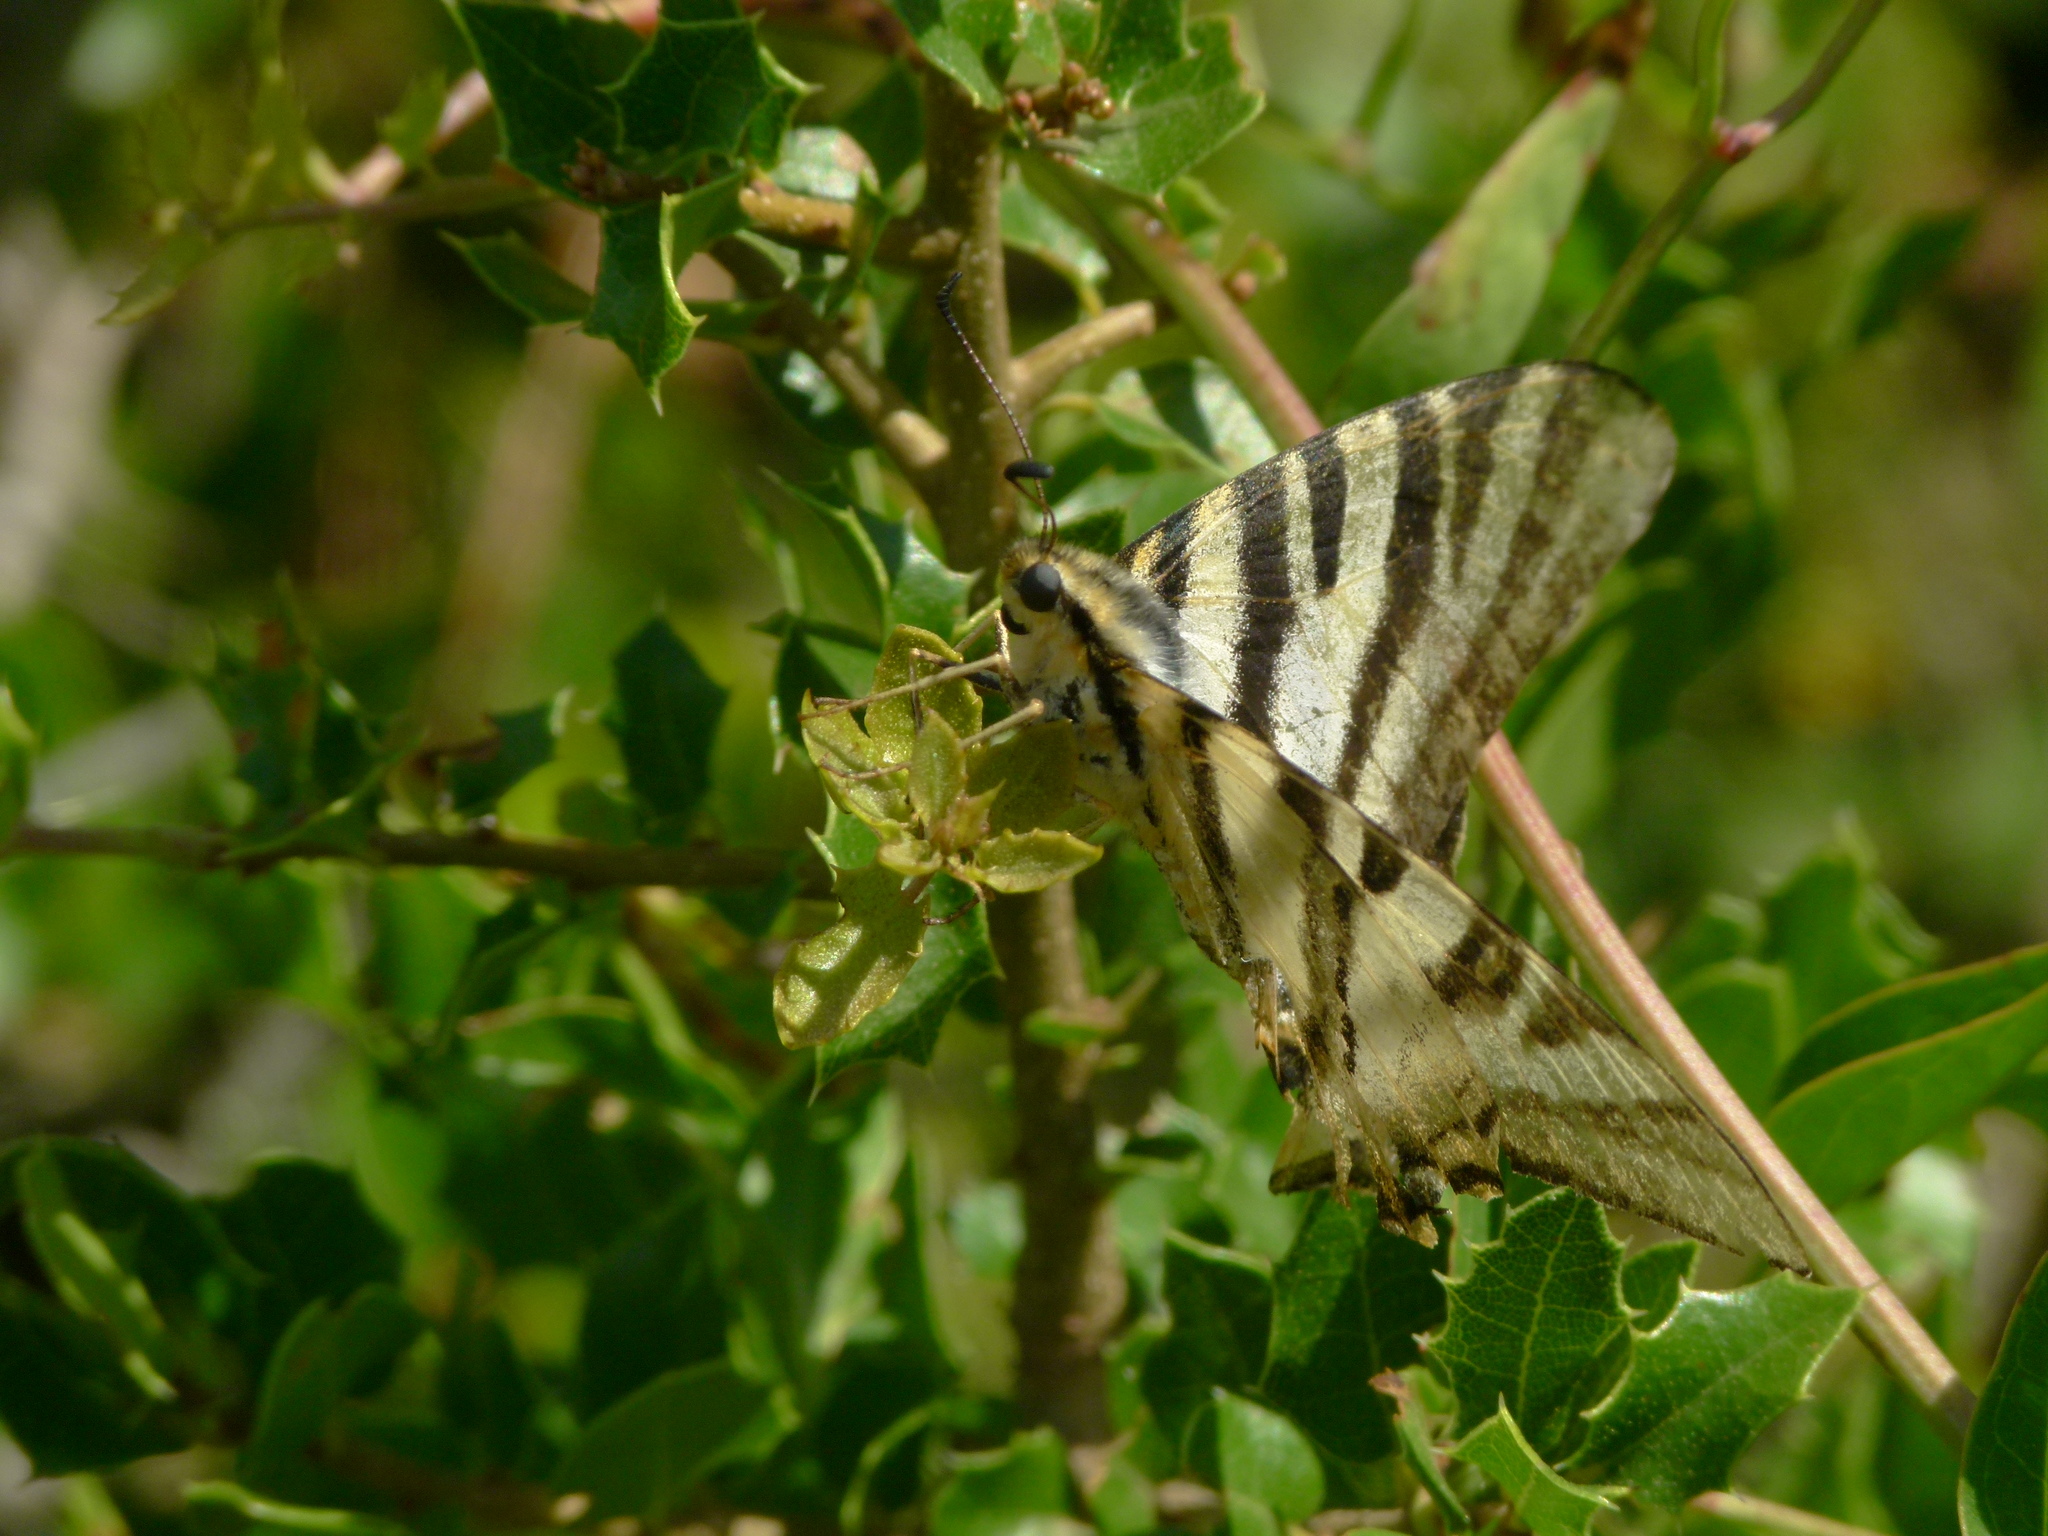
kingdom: Animalia
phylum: Arthropoda
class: Insecta
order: Lepidoptera
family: Papilionidae
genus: Iphiclides
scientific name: Iphiclides feisthamelii
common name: Iberian scarce swallowtail
